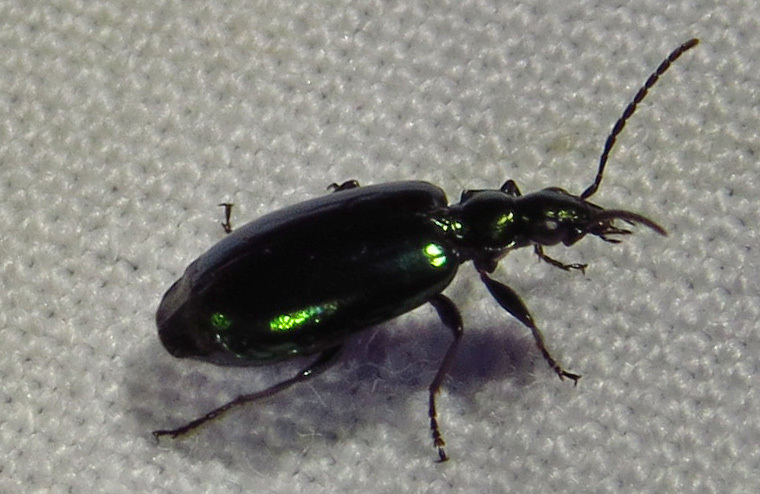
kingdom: Animalia
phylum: Arthropoda
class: Insecta
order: Coleoptera
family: Carabidae
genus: Lebia
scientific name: Lebia viridis
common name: Flower lebia beetle
